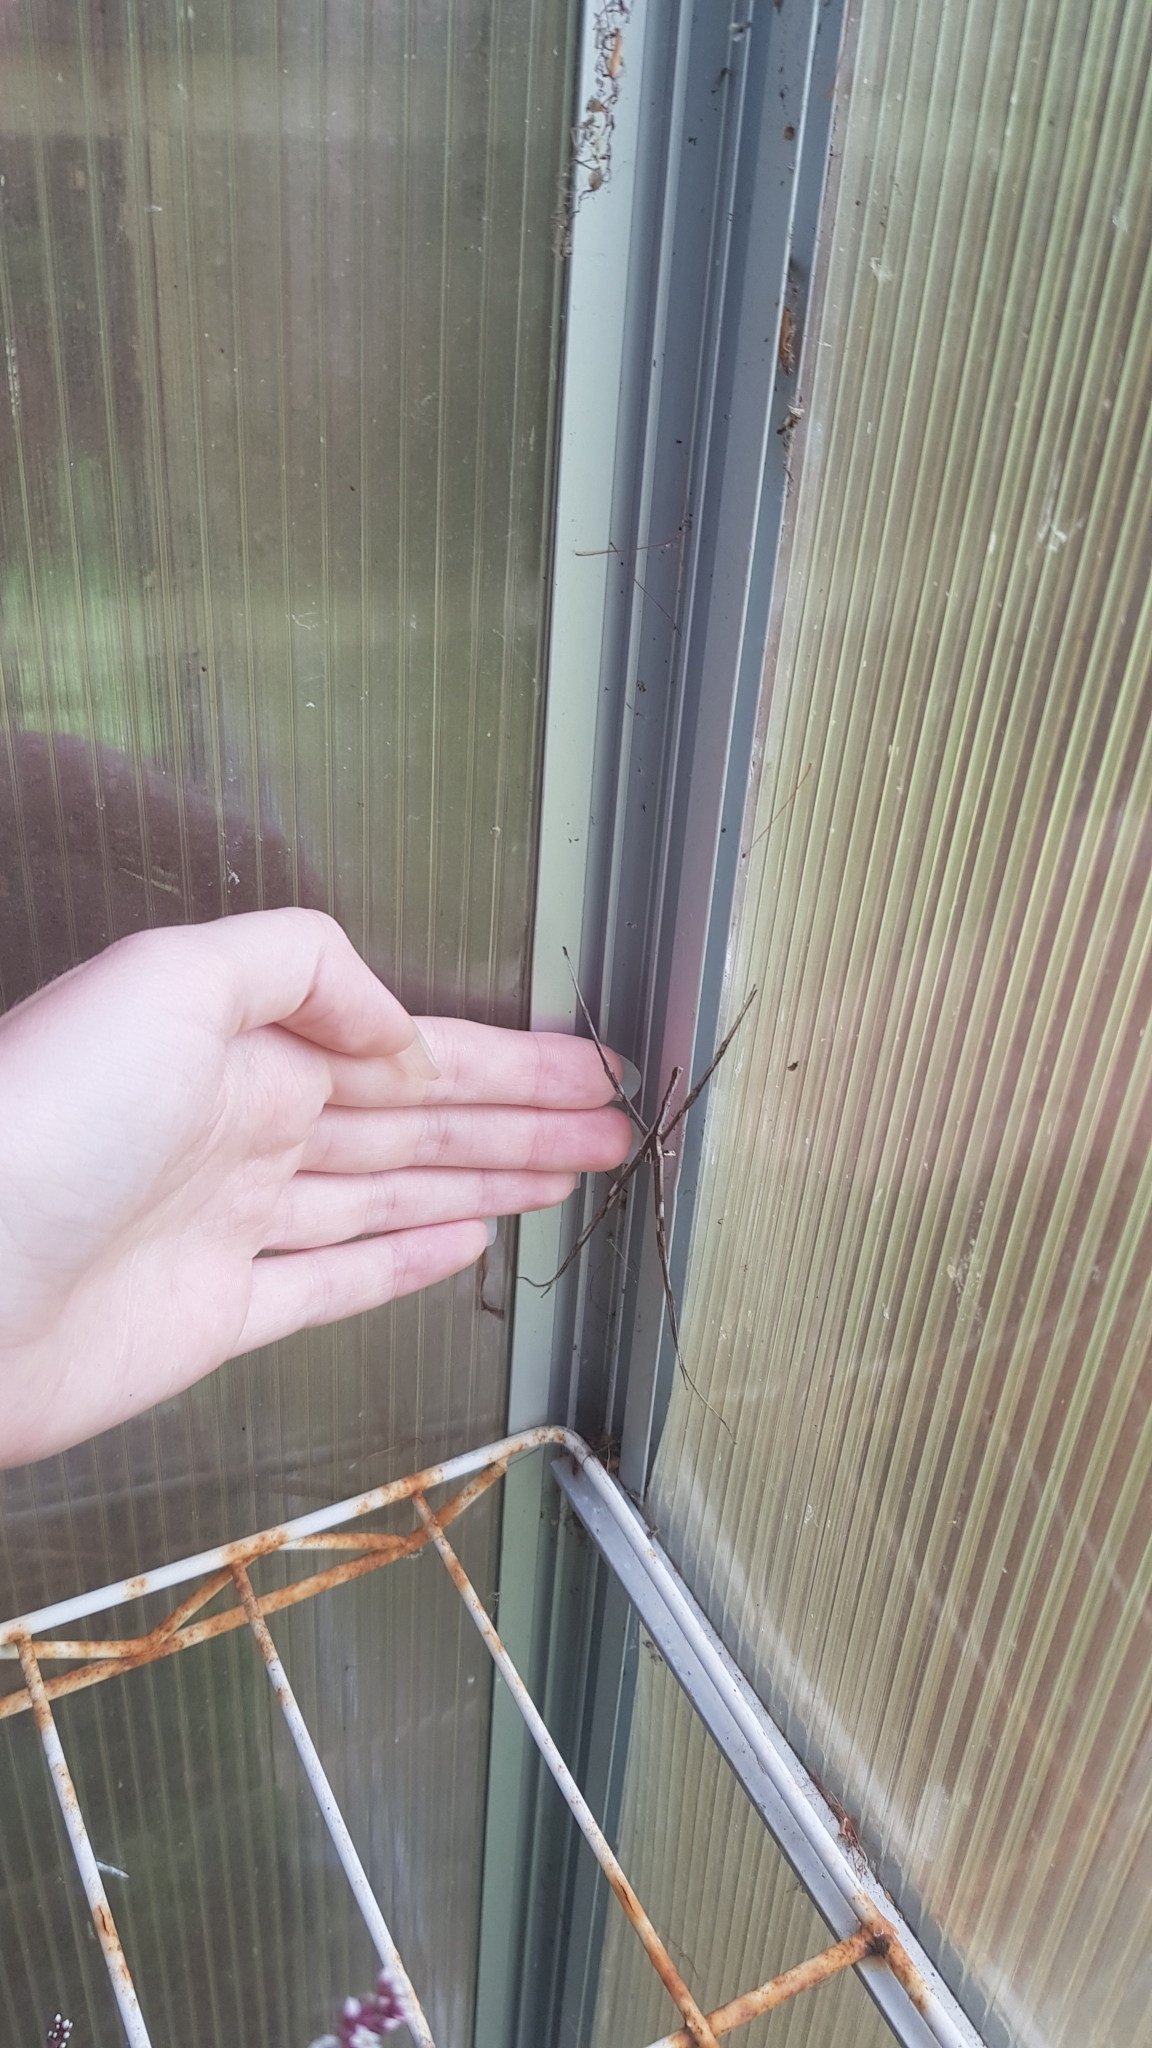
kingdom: Animalia
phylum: Arthropoda
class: Arachnida
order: Araneae
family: Deinopidae
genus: Deinopis
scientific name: Deinopis subrufa
